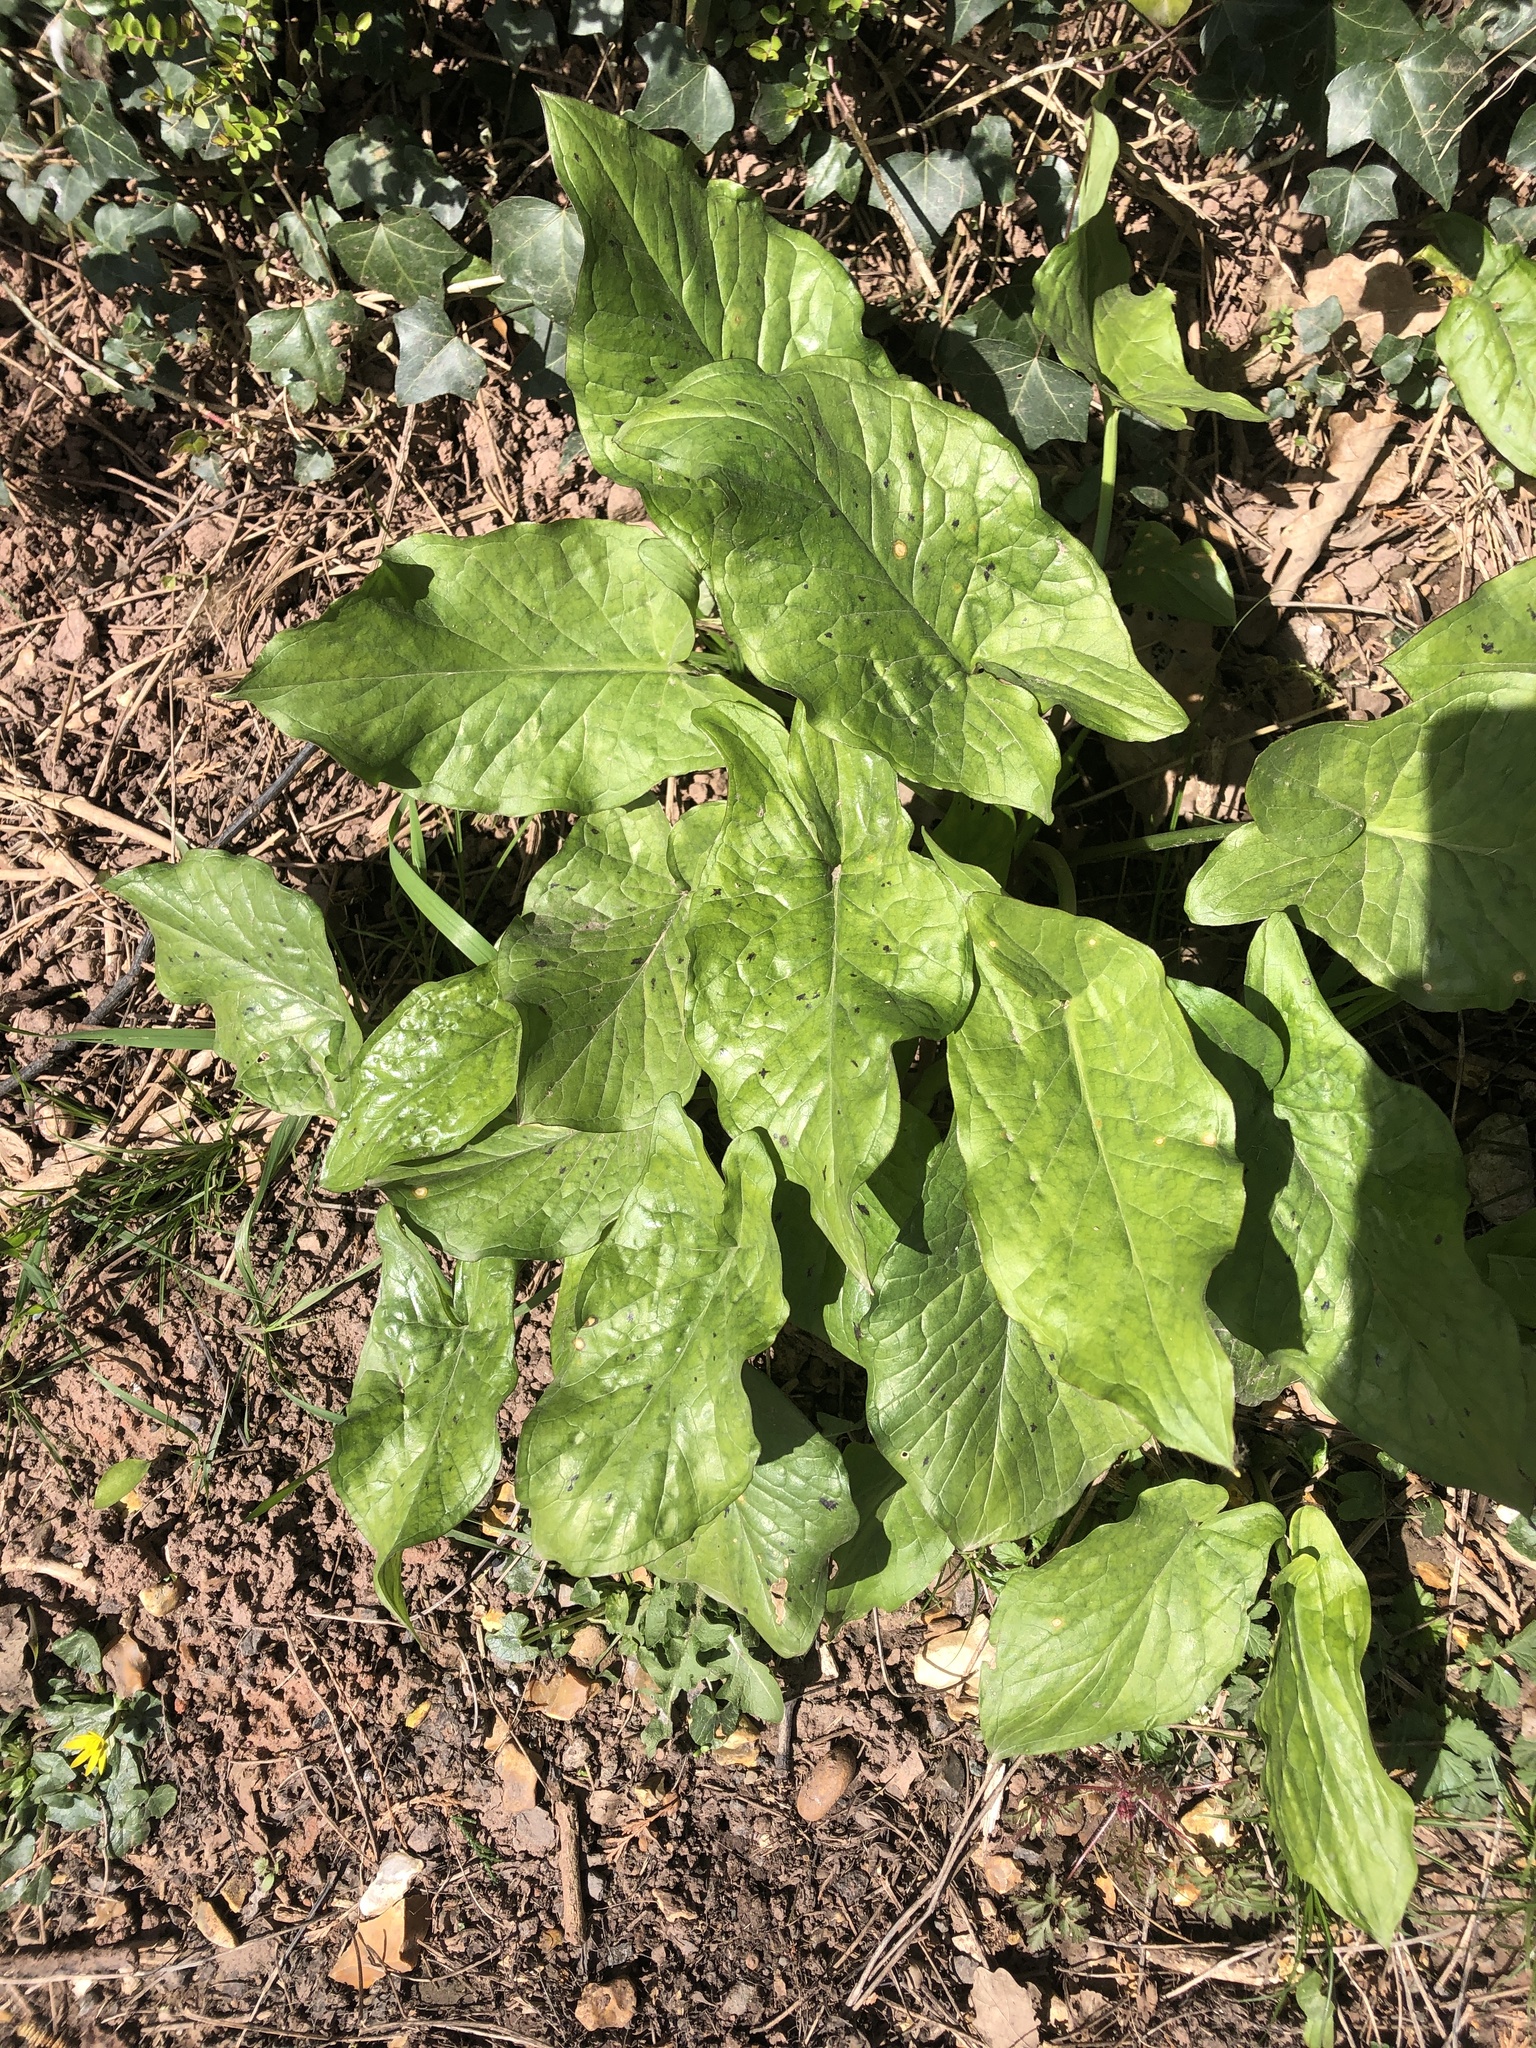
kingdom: Plantae
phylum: Tracheophyta
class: Liliopsida
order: Alismatales
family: Araceae
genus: Arum
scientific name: Arum maculatum
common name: Lords-and-ladies
